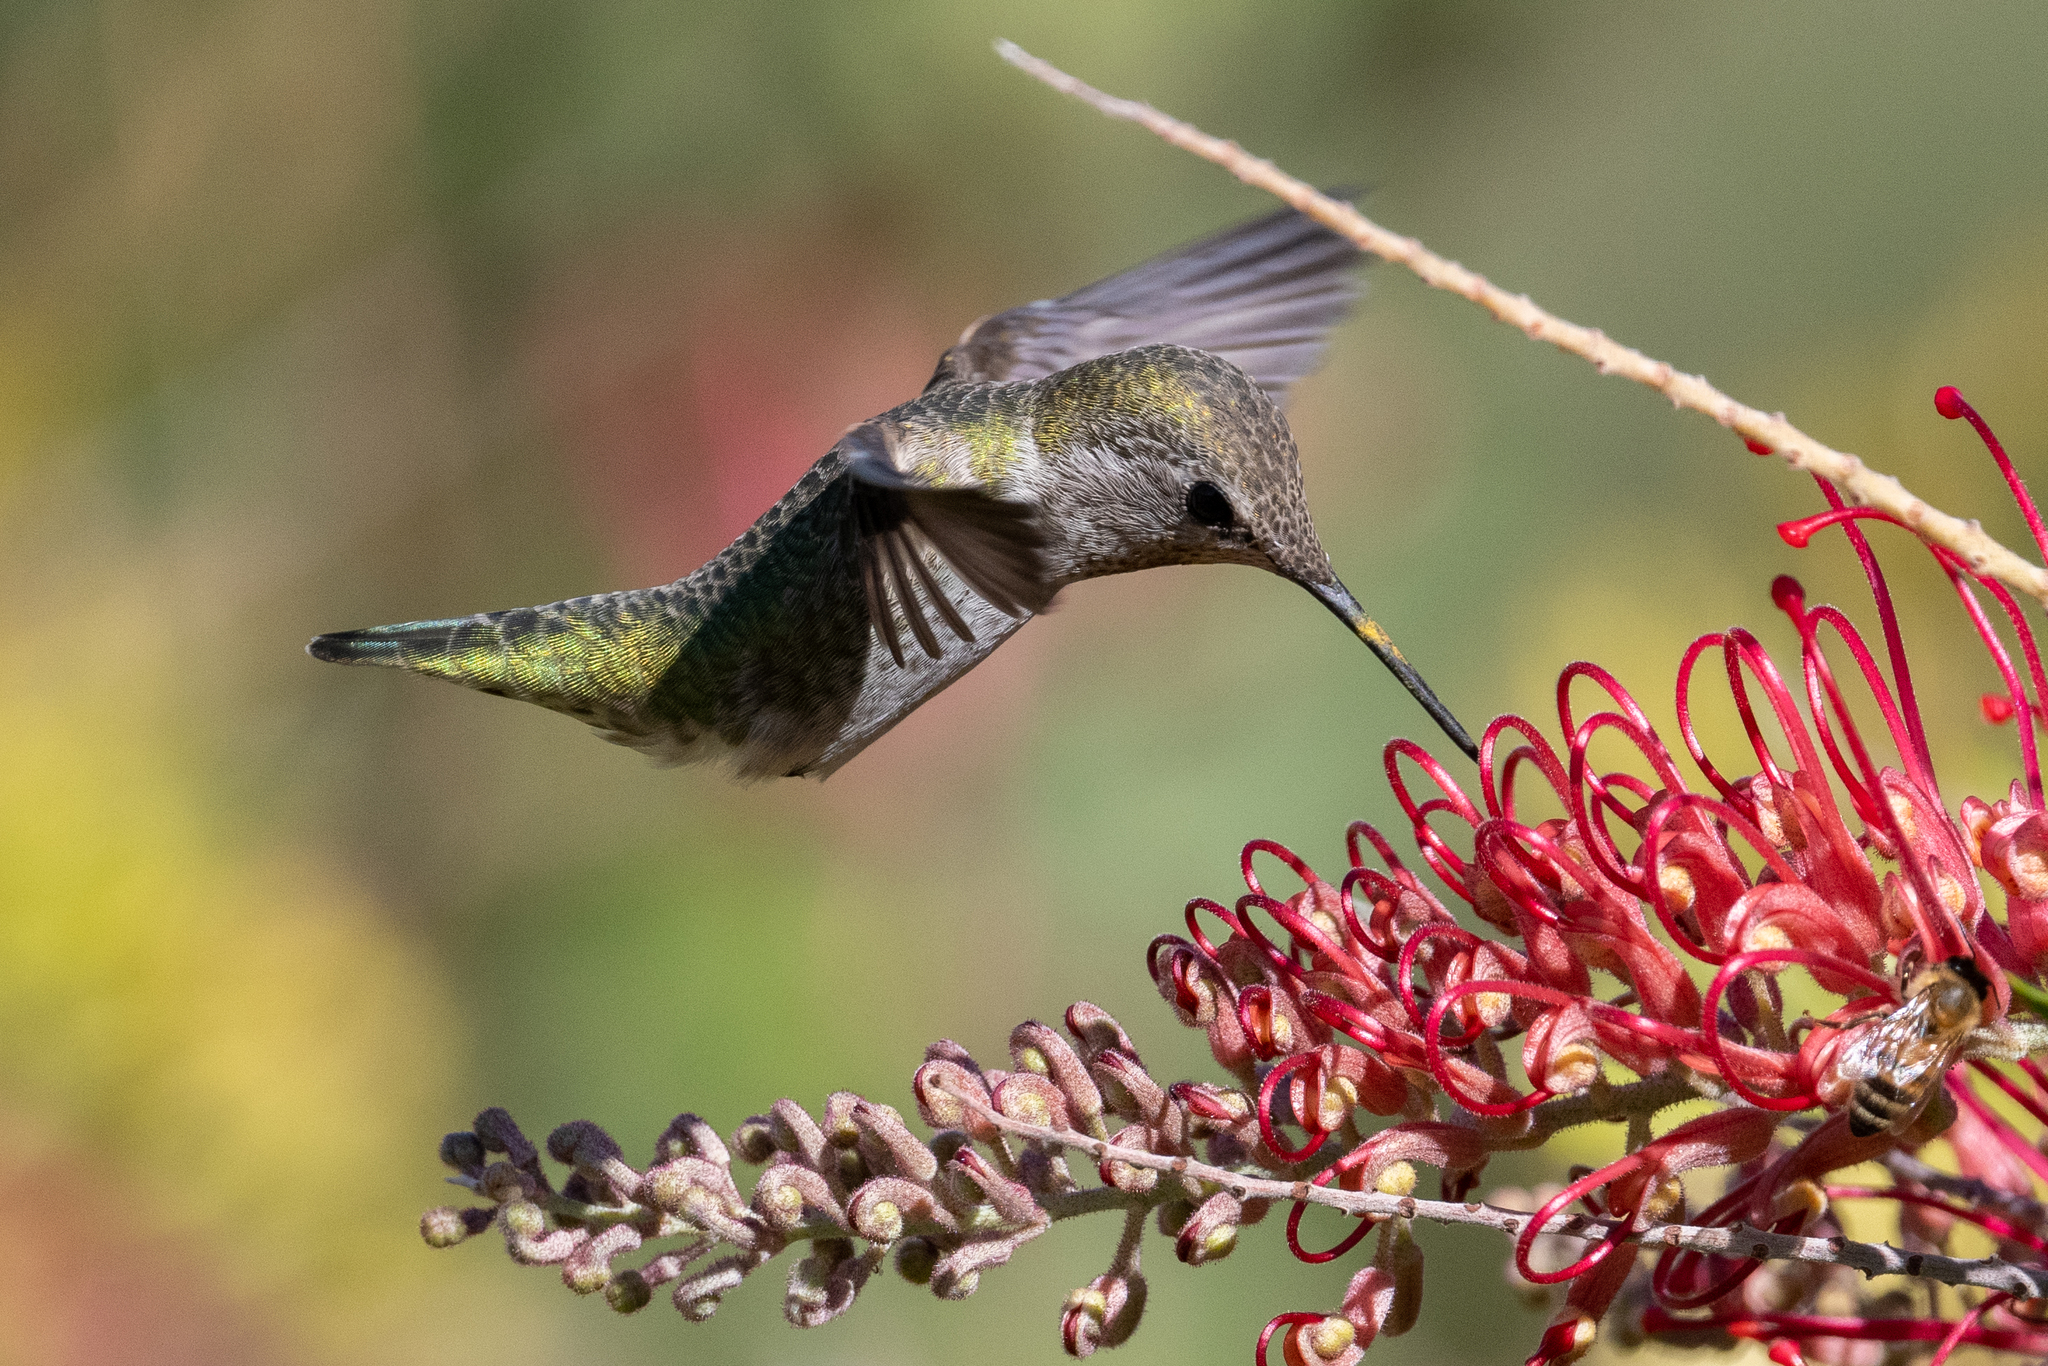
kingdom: Animalia
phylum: Chordata
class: Aves
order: Apodiformes
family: Trochilidae
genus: Calypte
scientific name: Calypte anna
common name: Anna's hummingbird
